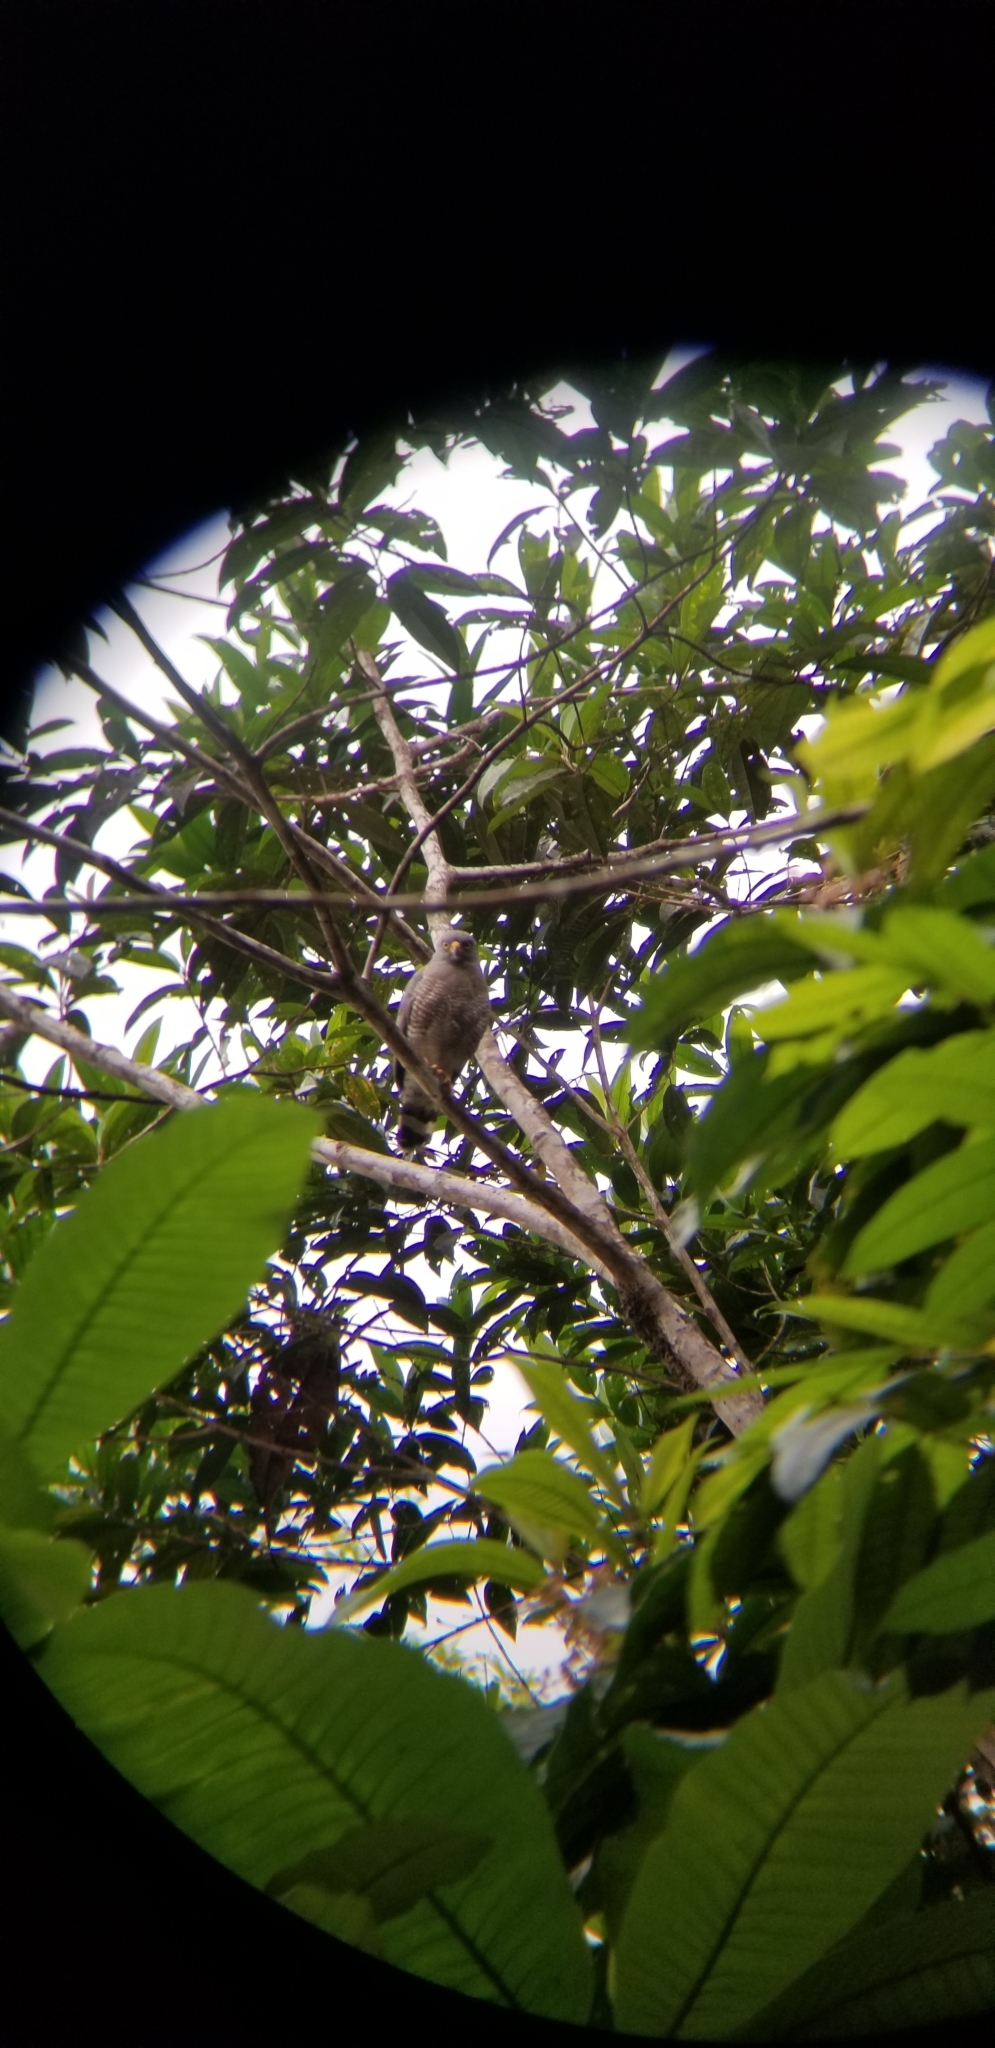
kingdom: Animalia
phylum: Chordata
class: Aves
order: Accipitriformes
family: Accipitridae
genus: Rupornis
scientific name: Rupornis magnirostris
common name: Roadside hawk
